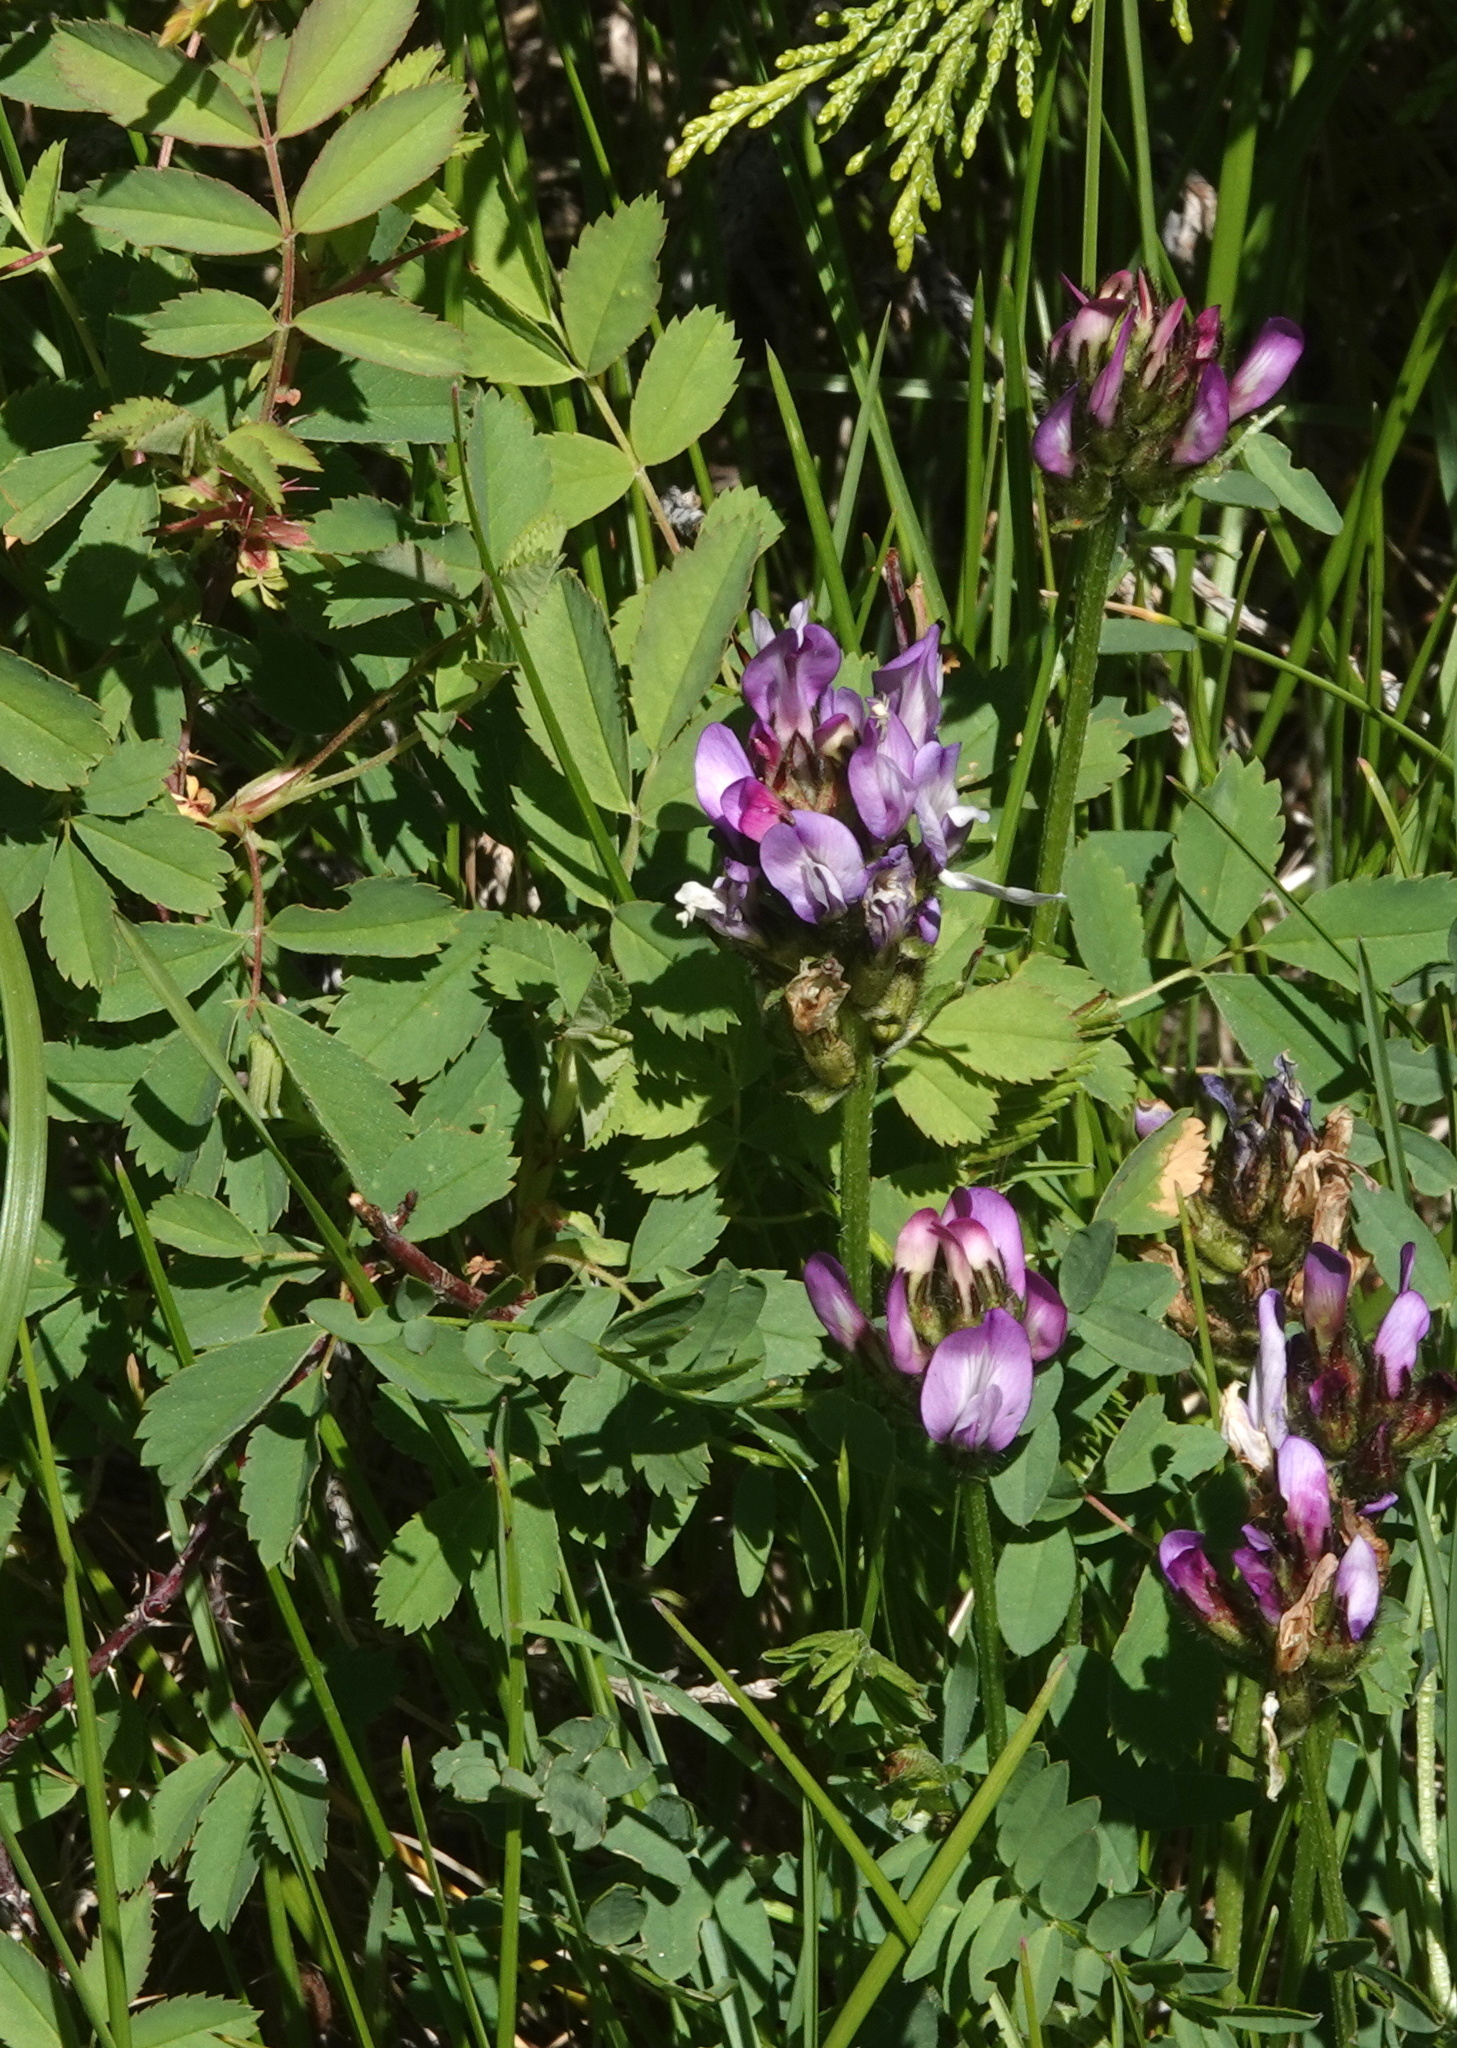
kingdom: Plantae
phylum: Tracheophyta
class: Magnoliopsida
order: Fabales
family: Fabaceae
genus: Astragalus
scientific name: Astragalus agrestis
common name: Field milk-vetch
